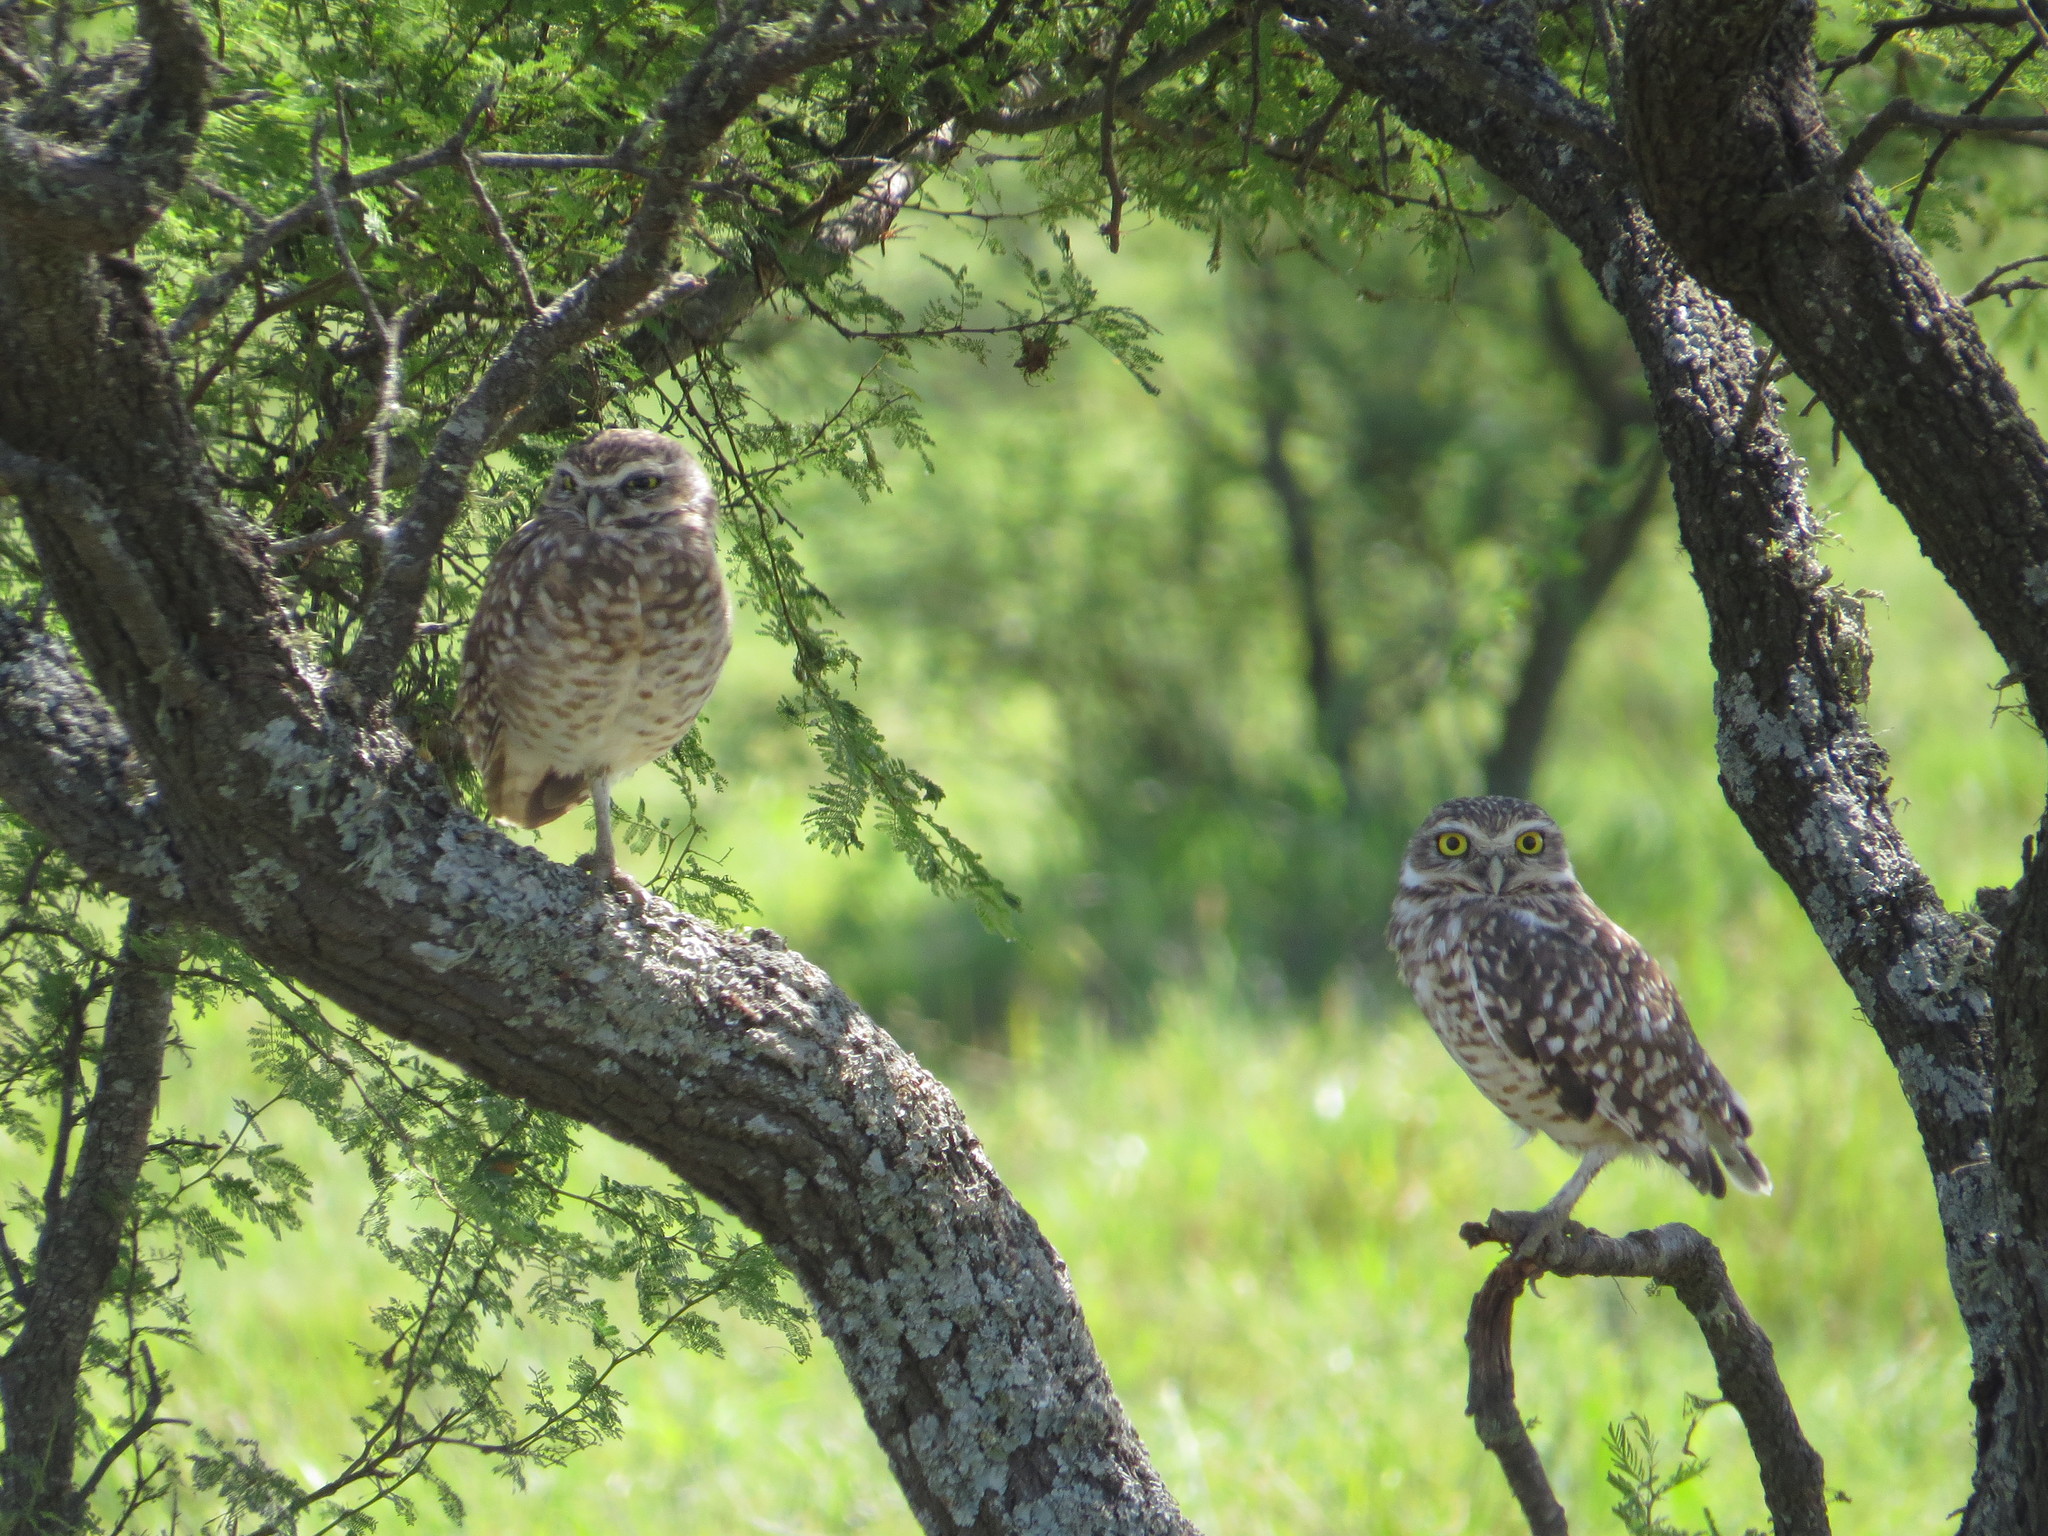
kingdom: Animalia
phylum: Chordata
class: Aves
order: Strigiformes
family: Strigidae
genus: Athene
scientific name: Athene cunicularia
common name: Burrowing owl
